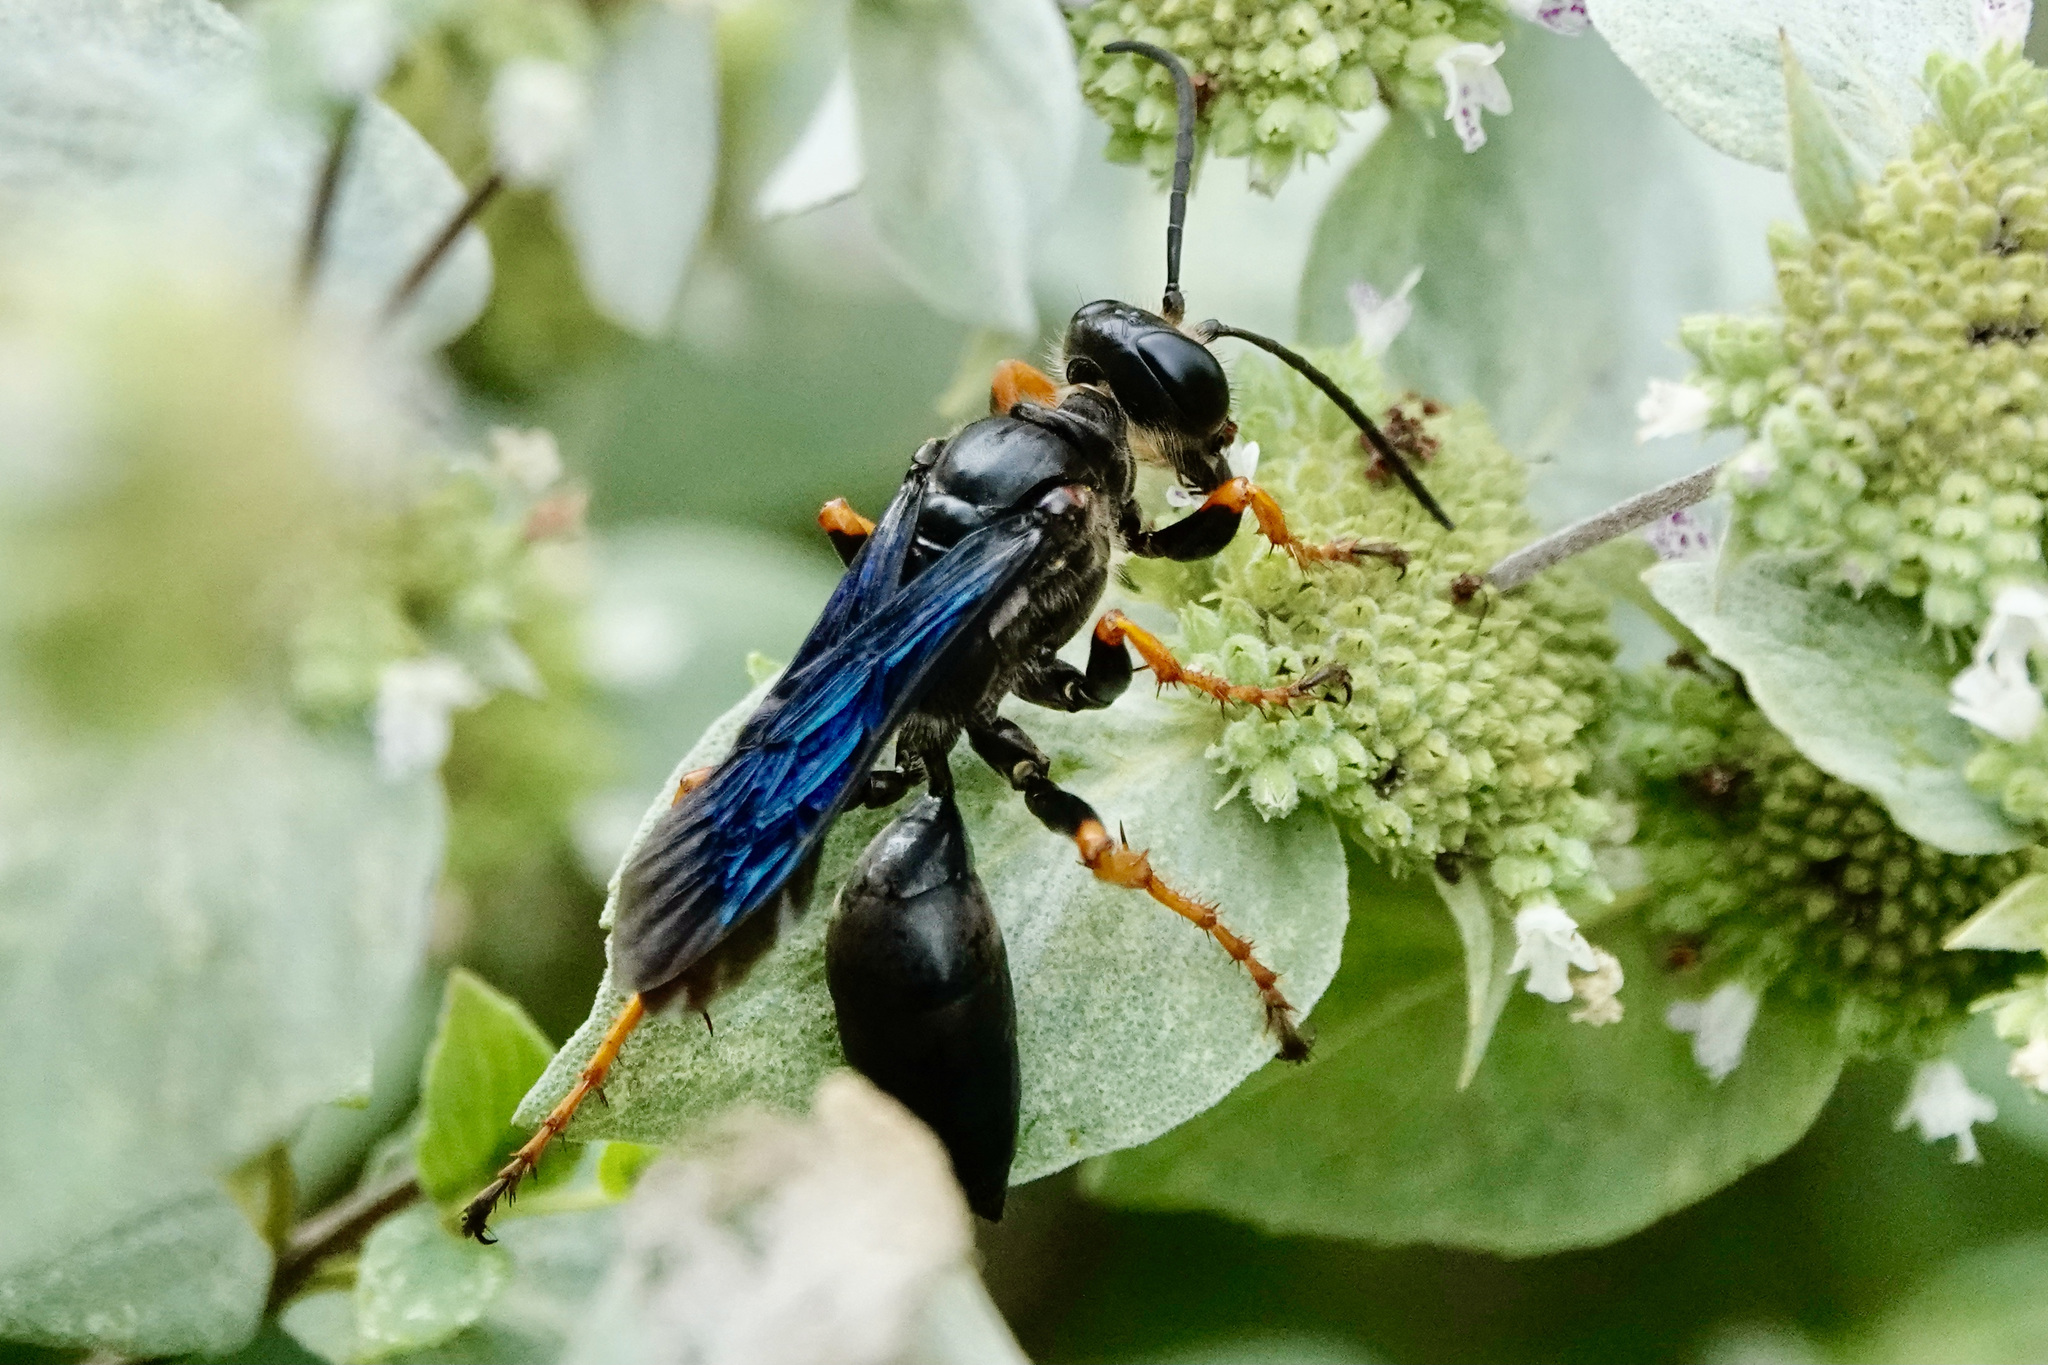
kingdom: Animalia
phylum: Arthropoda
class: Insecta
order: Hymenoptera
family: Sphecidae
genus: Sphex
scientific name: Sphex nudus
